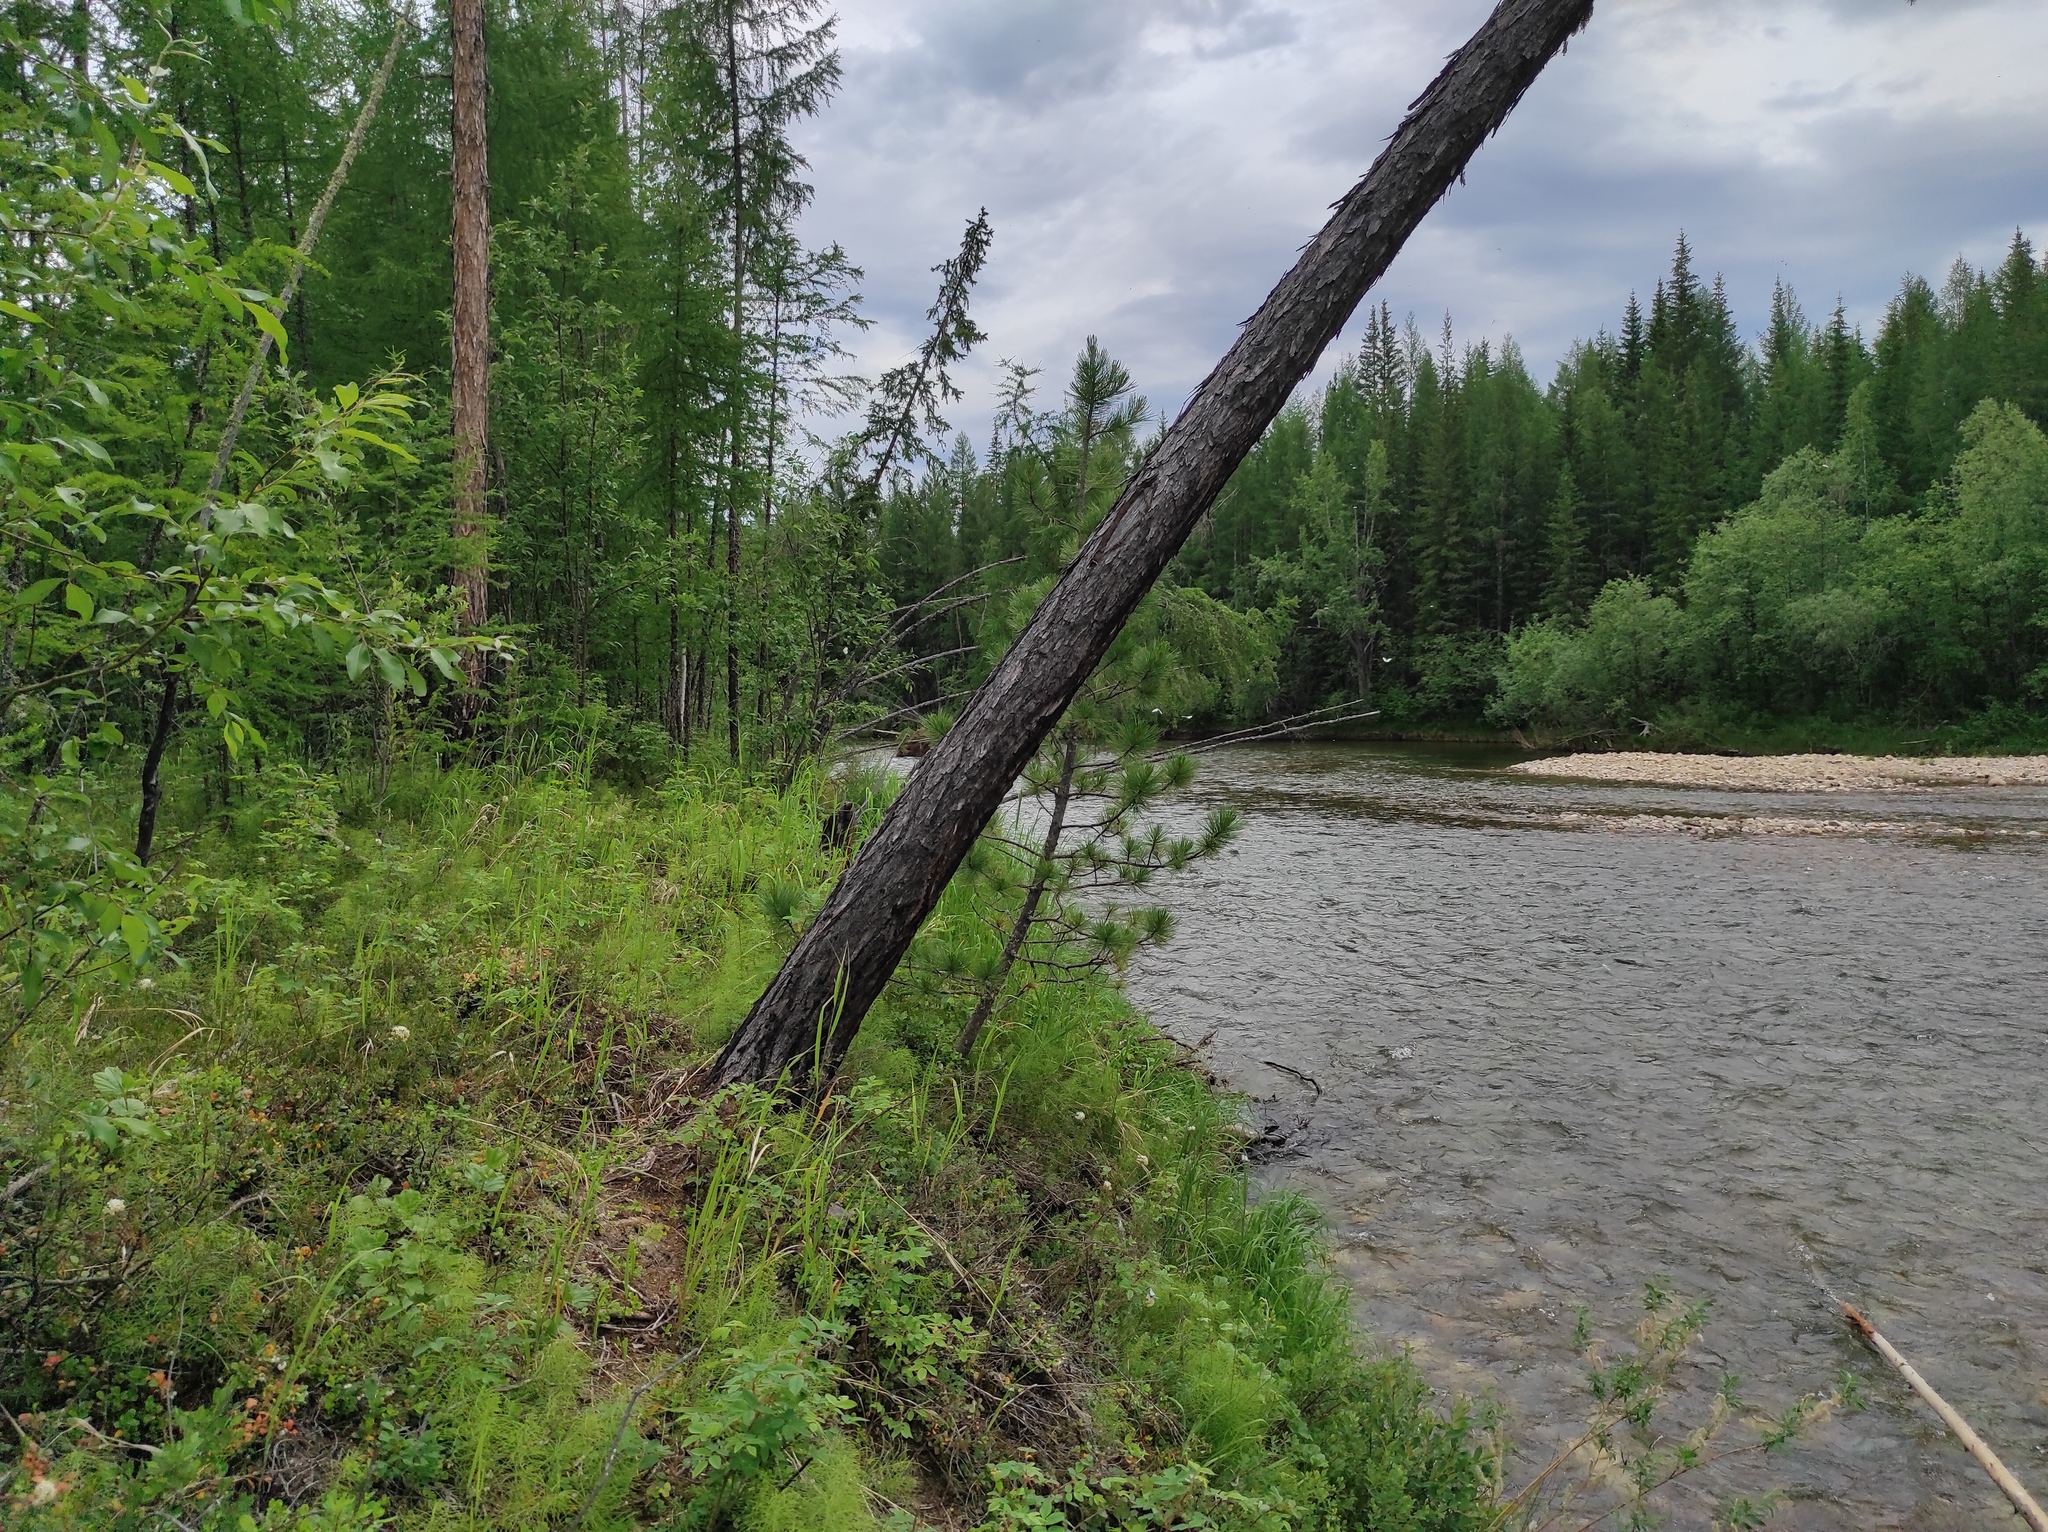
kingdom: Plantae
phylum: Tracheophyta
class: Pinopsida
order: Pinales
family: Pinaceae
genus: Pinus
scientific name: Pinus sibirica
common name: Siberian pine
